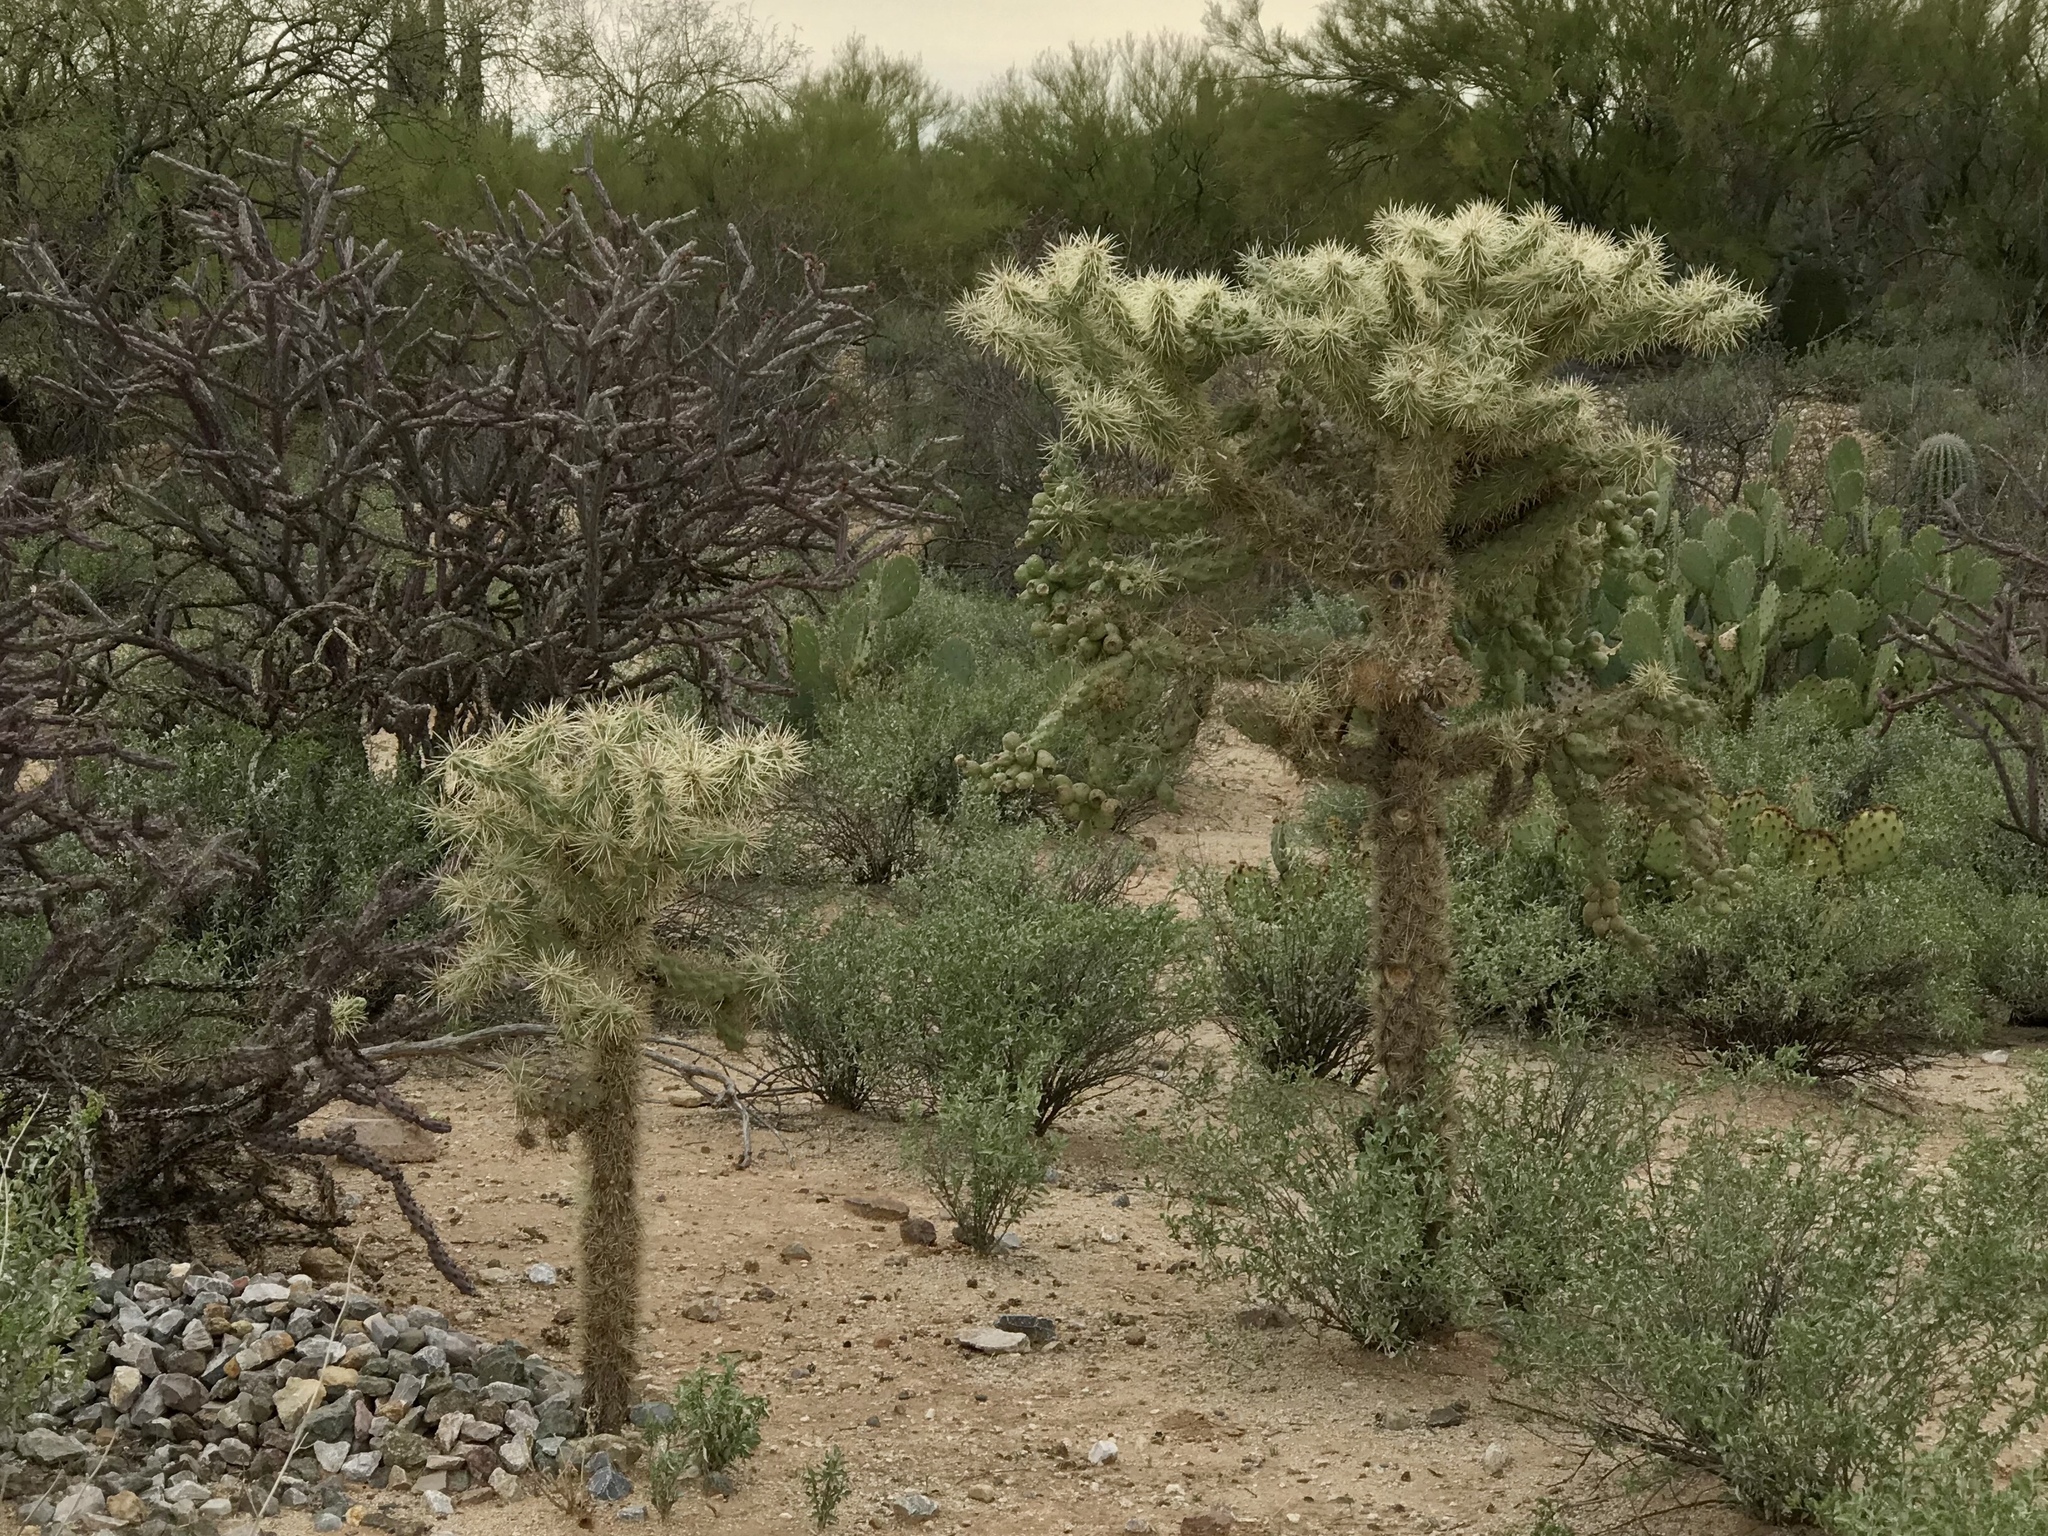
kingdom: Plantae
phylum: Tracheophyta
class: Magnoliopsida
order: Caryophyllales
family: Cactaceae
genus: Cylindropuntia
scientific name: Cylindropuntia fulgida
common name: Jumping cholla
